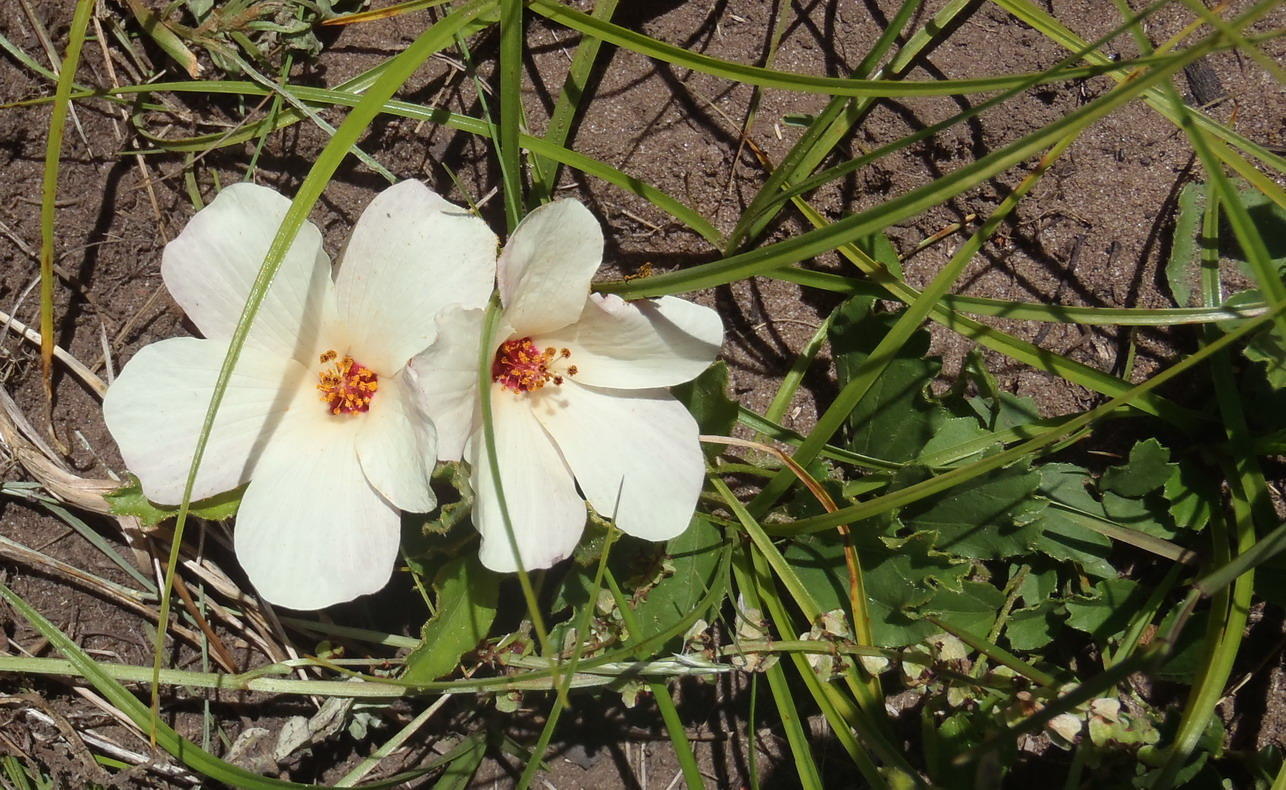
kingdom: Plantae
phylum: Tracheophyta
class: Magnoliopsida
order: Malvales
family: Malvaceae
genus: Hibiscus
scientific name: Hibiscus aethiopicus
